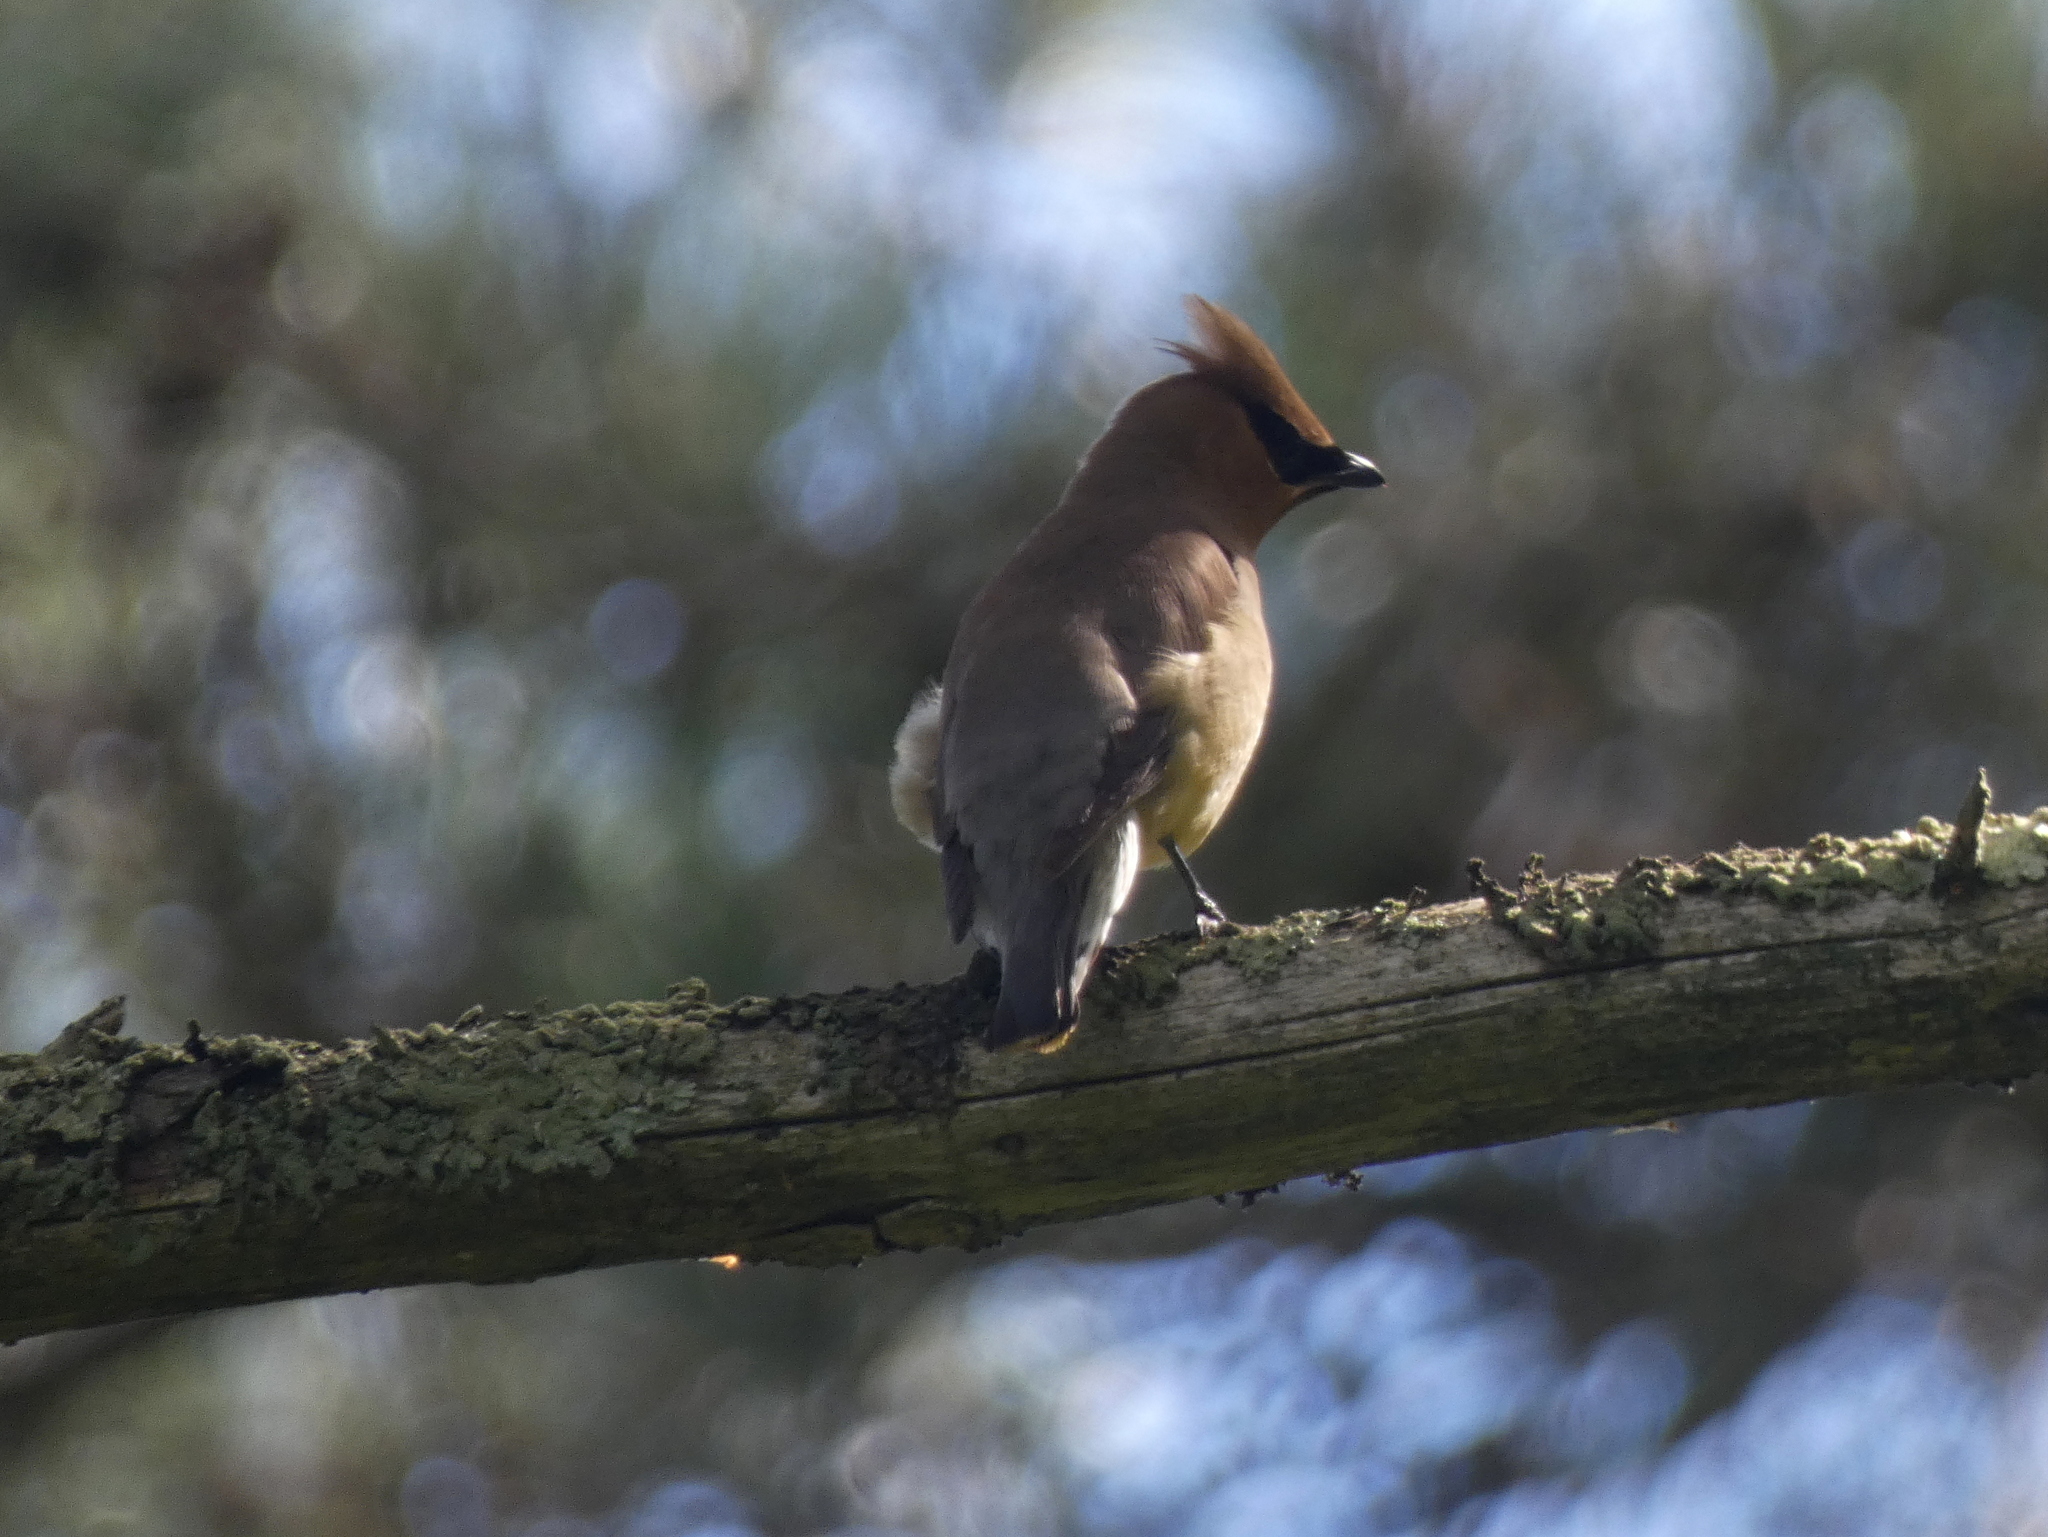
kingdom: Animalia
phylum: Chordata
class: Aves
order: Passeriformes
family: Bombycillidae
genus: Bombycilla
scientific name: Bombycilla cedrorum
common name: Cedar waxwing
